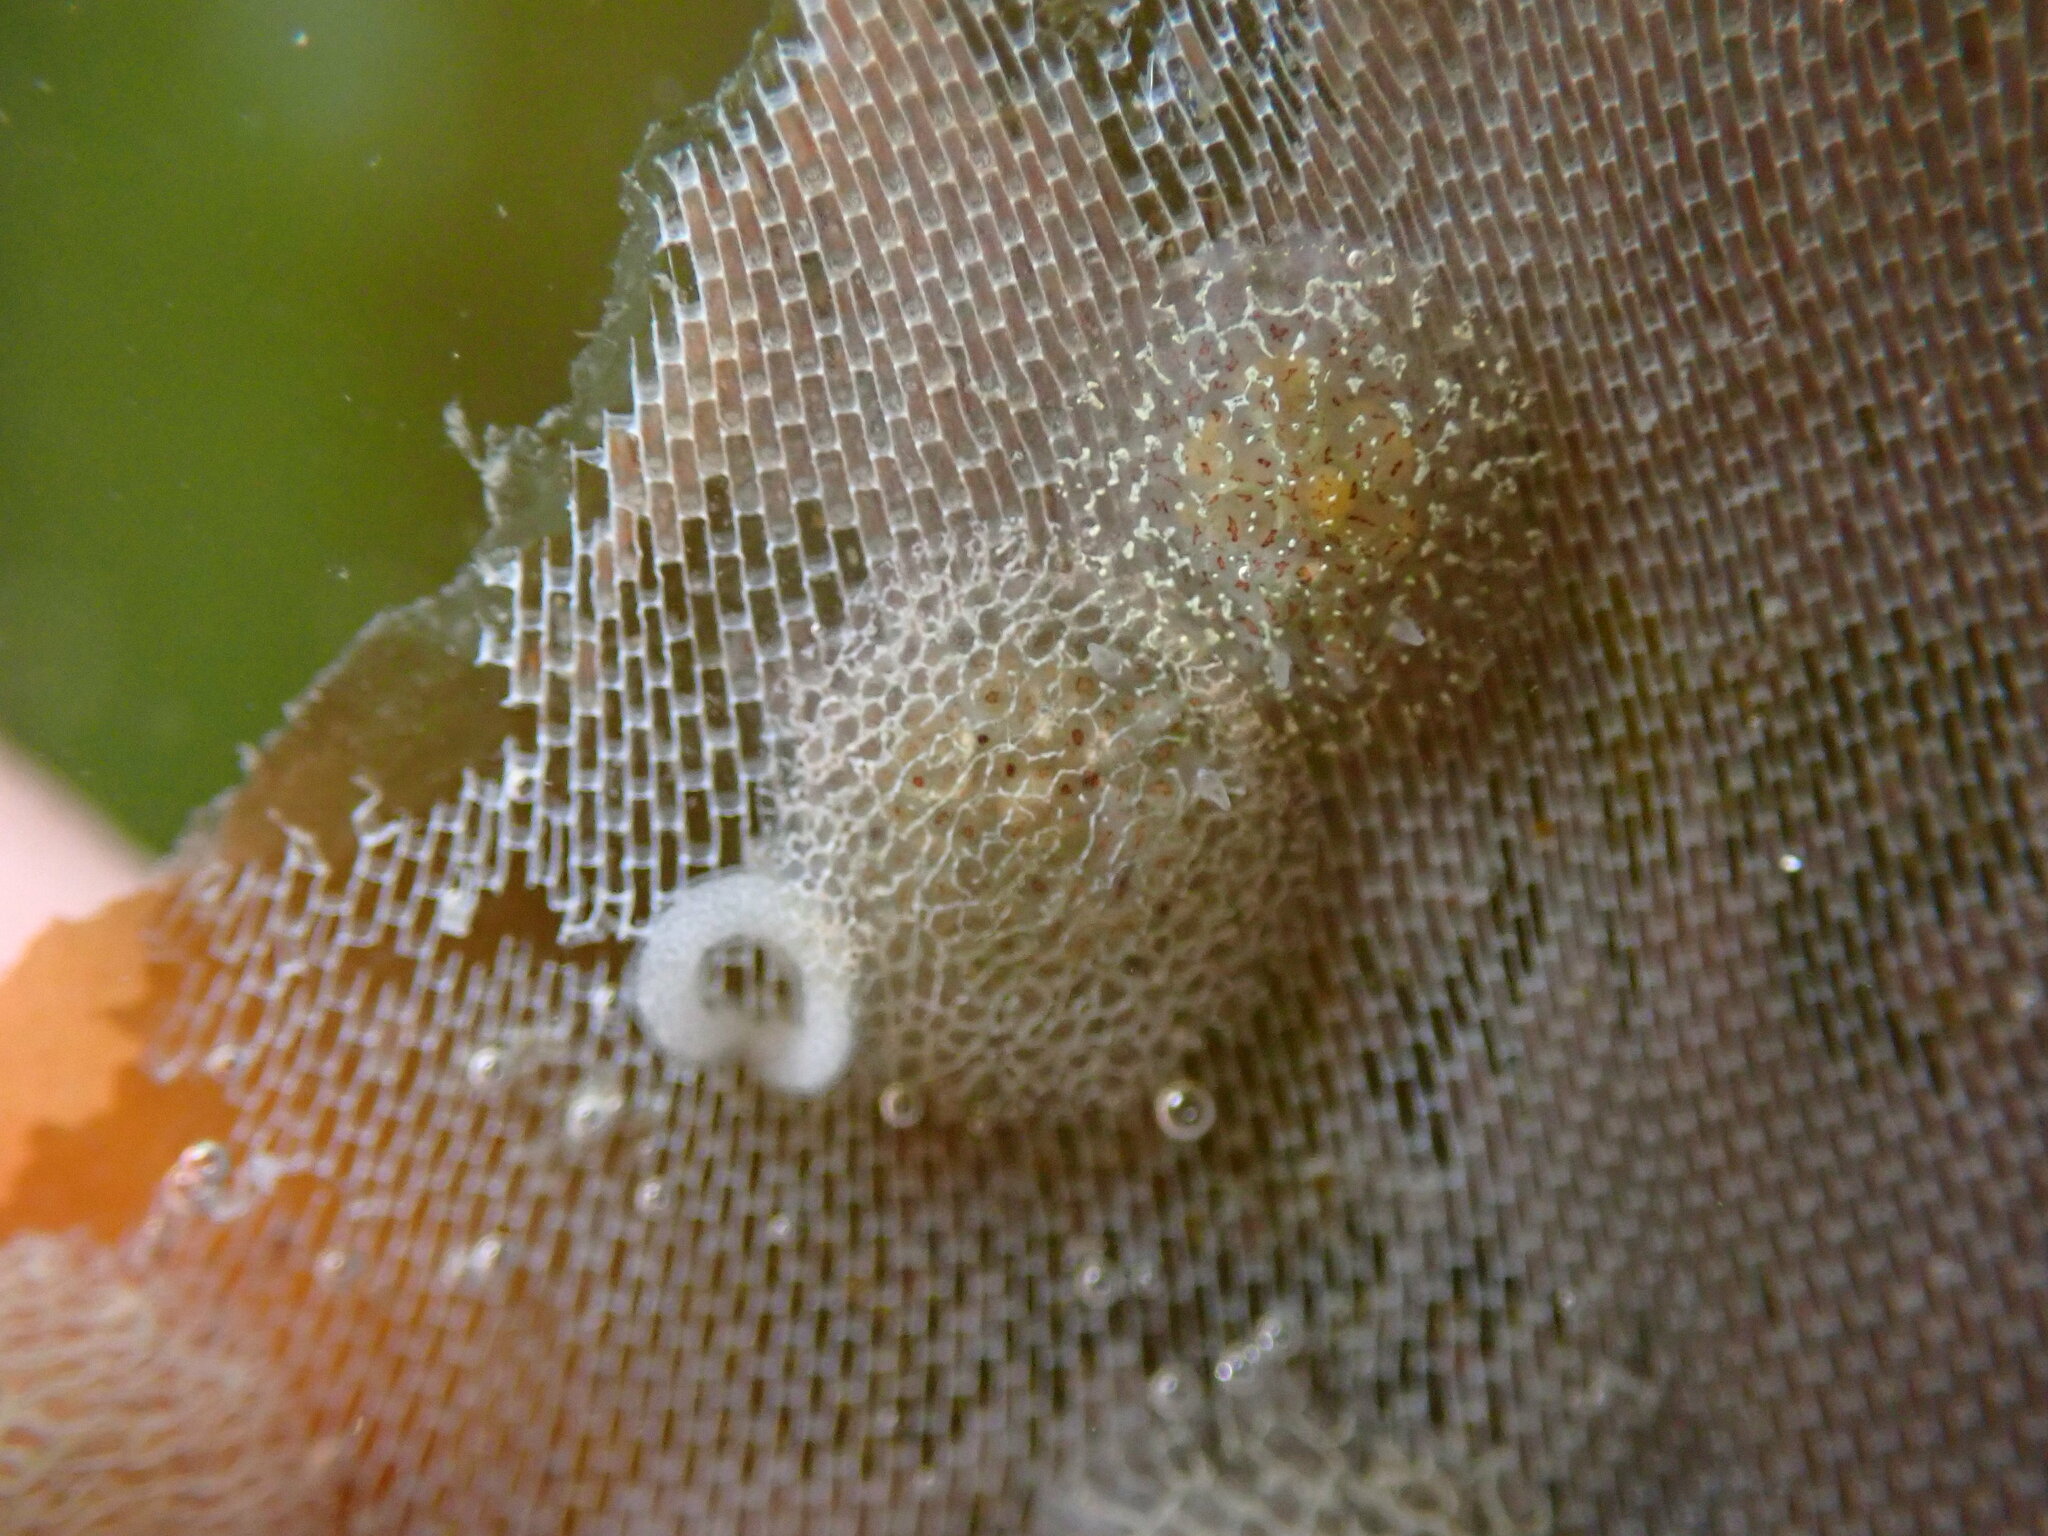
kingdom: Animalia
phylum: Mollusca
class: Gastropoda
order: Nudibranchia
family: Corambidae
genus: Corambe
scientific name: Corambe steinbergae
